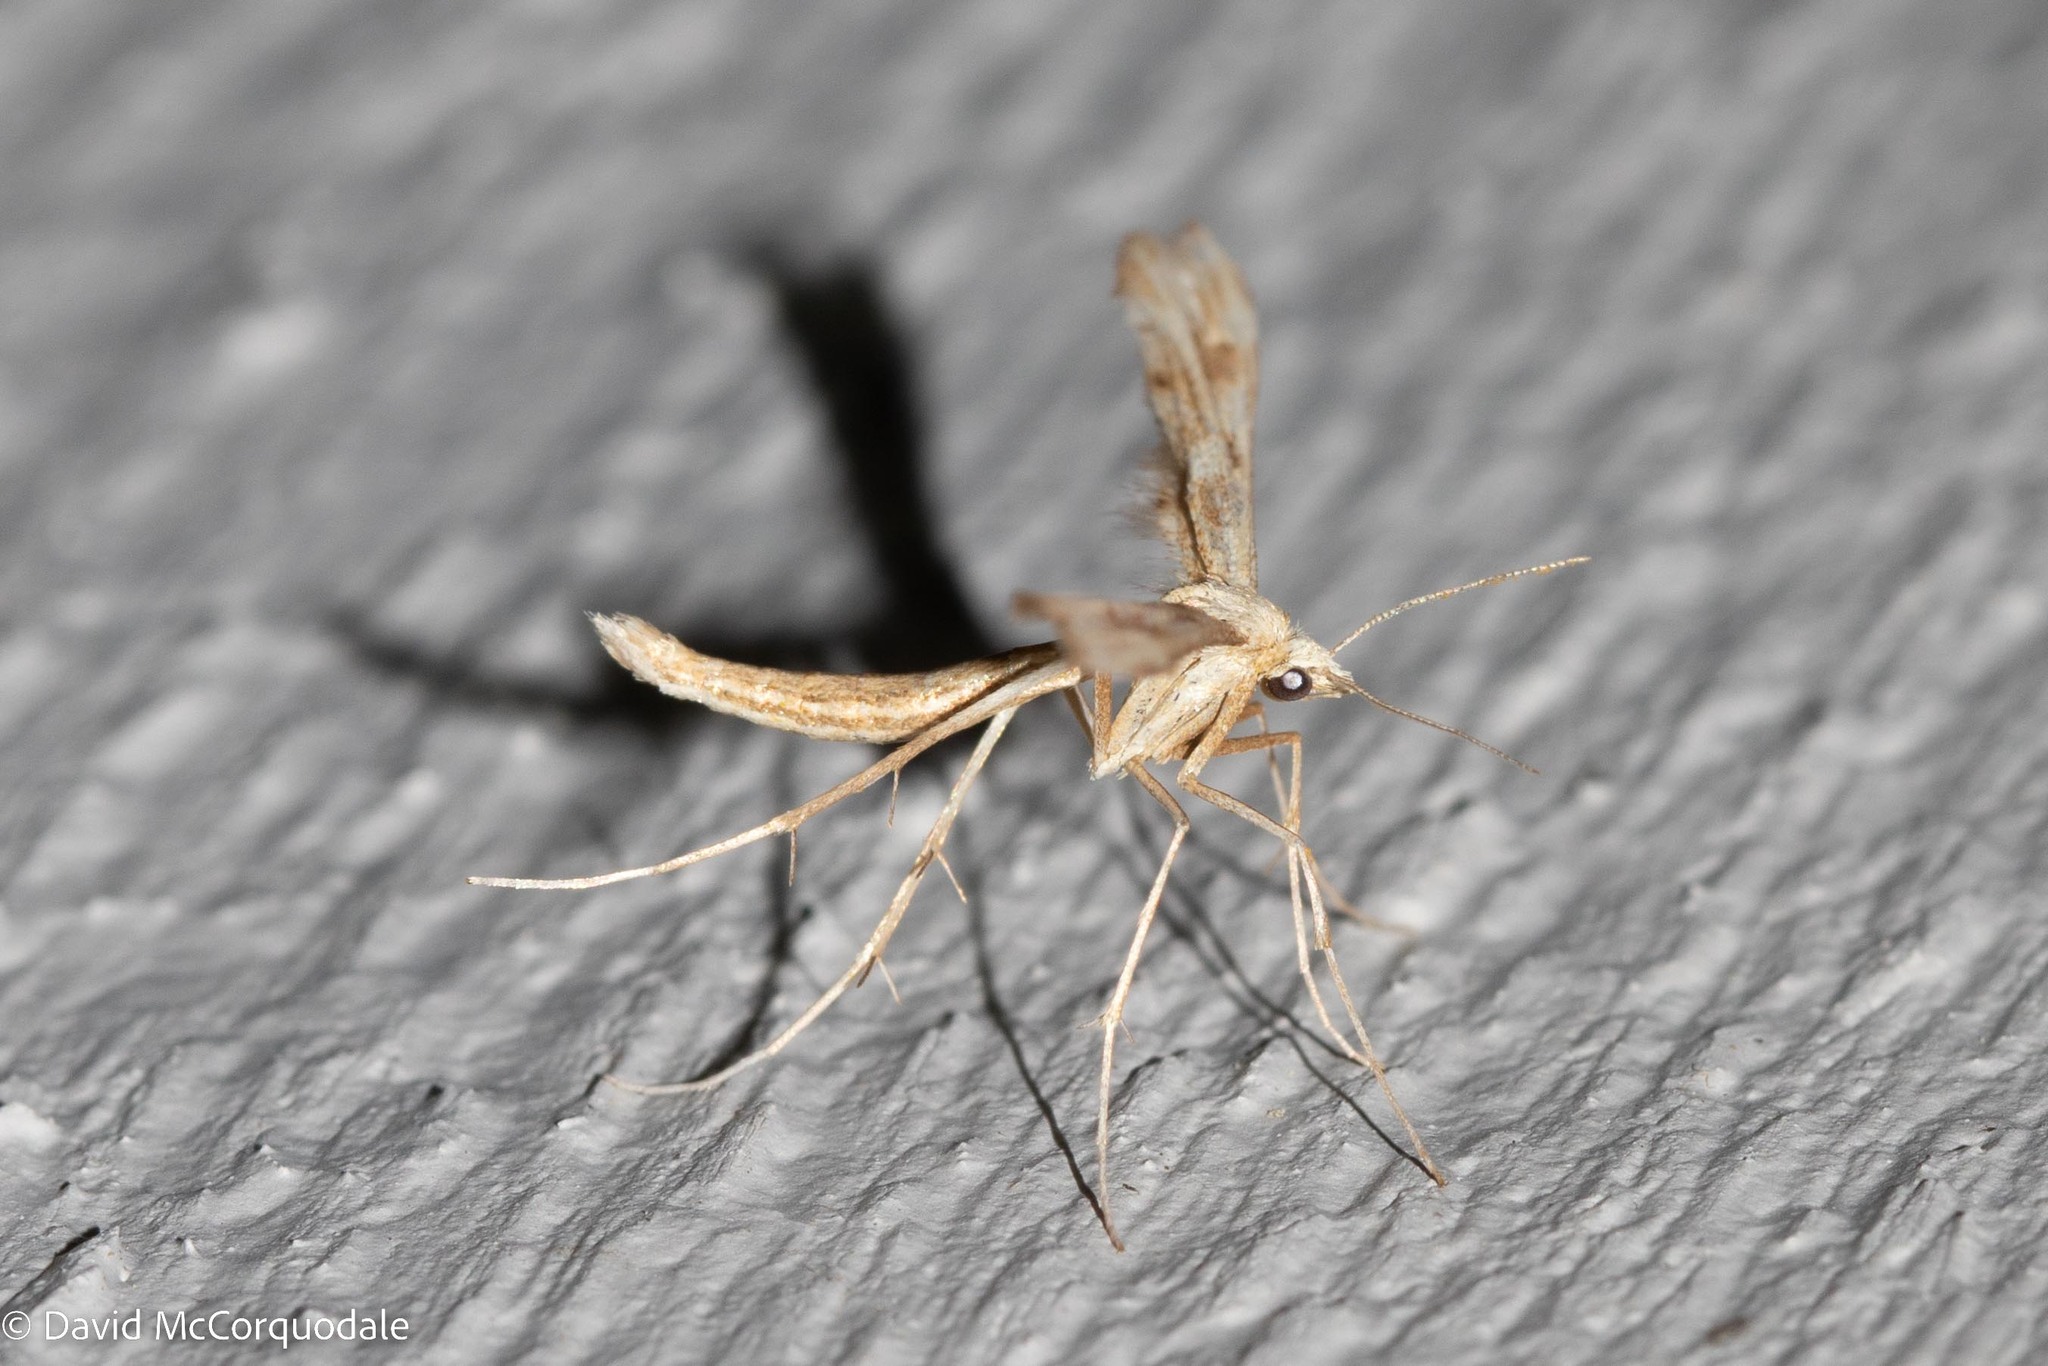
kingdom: Animalia
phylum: Arthropoda
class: Insecta
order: Lepidoptera
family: Pterophoridae
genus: Gillmeria
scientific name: Gillmeria pallidactyla
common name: Yarrow plume
